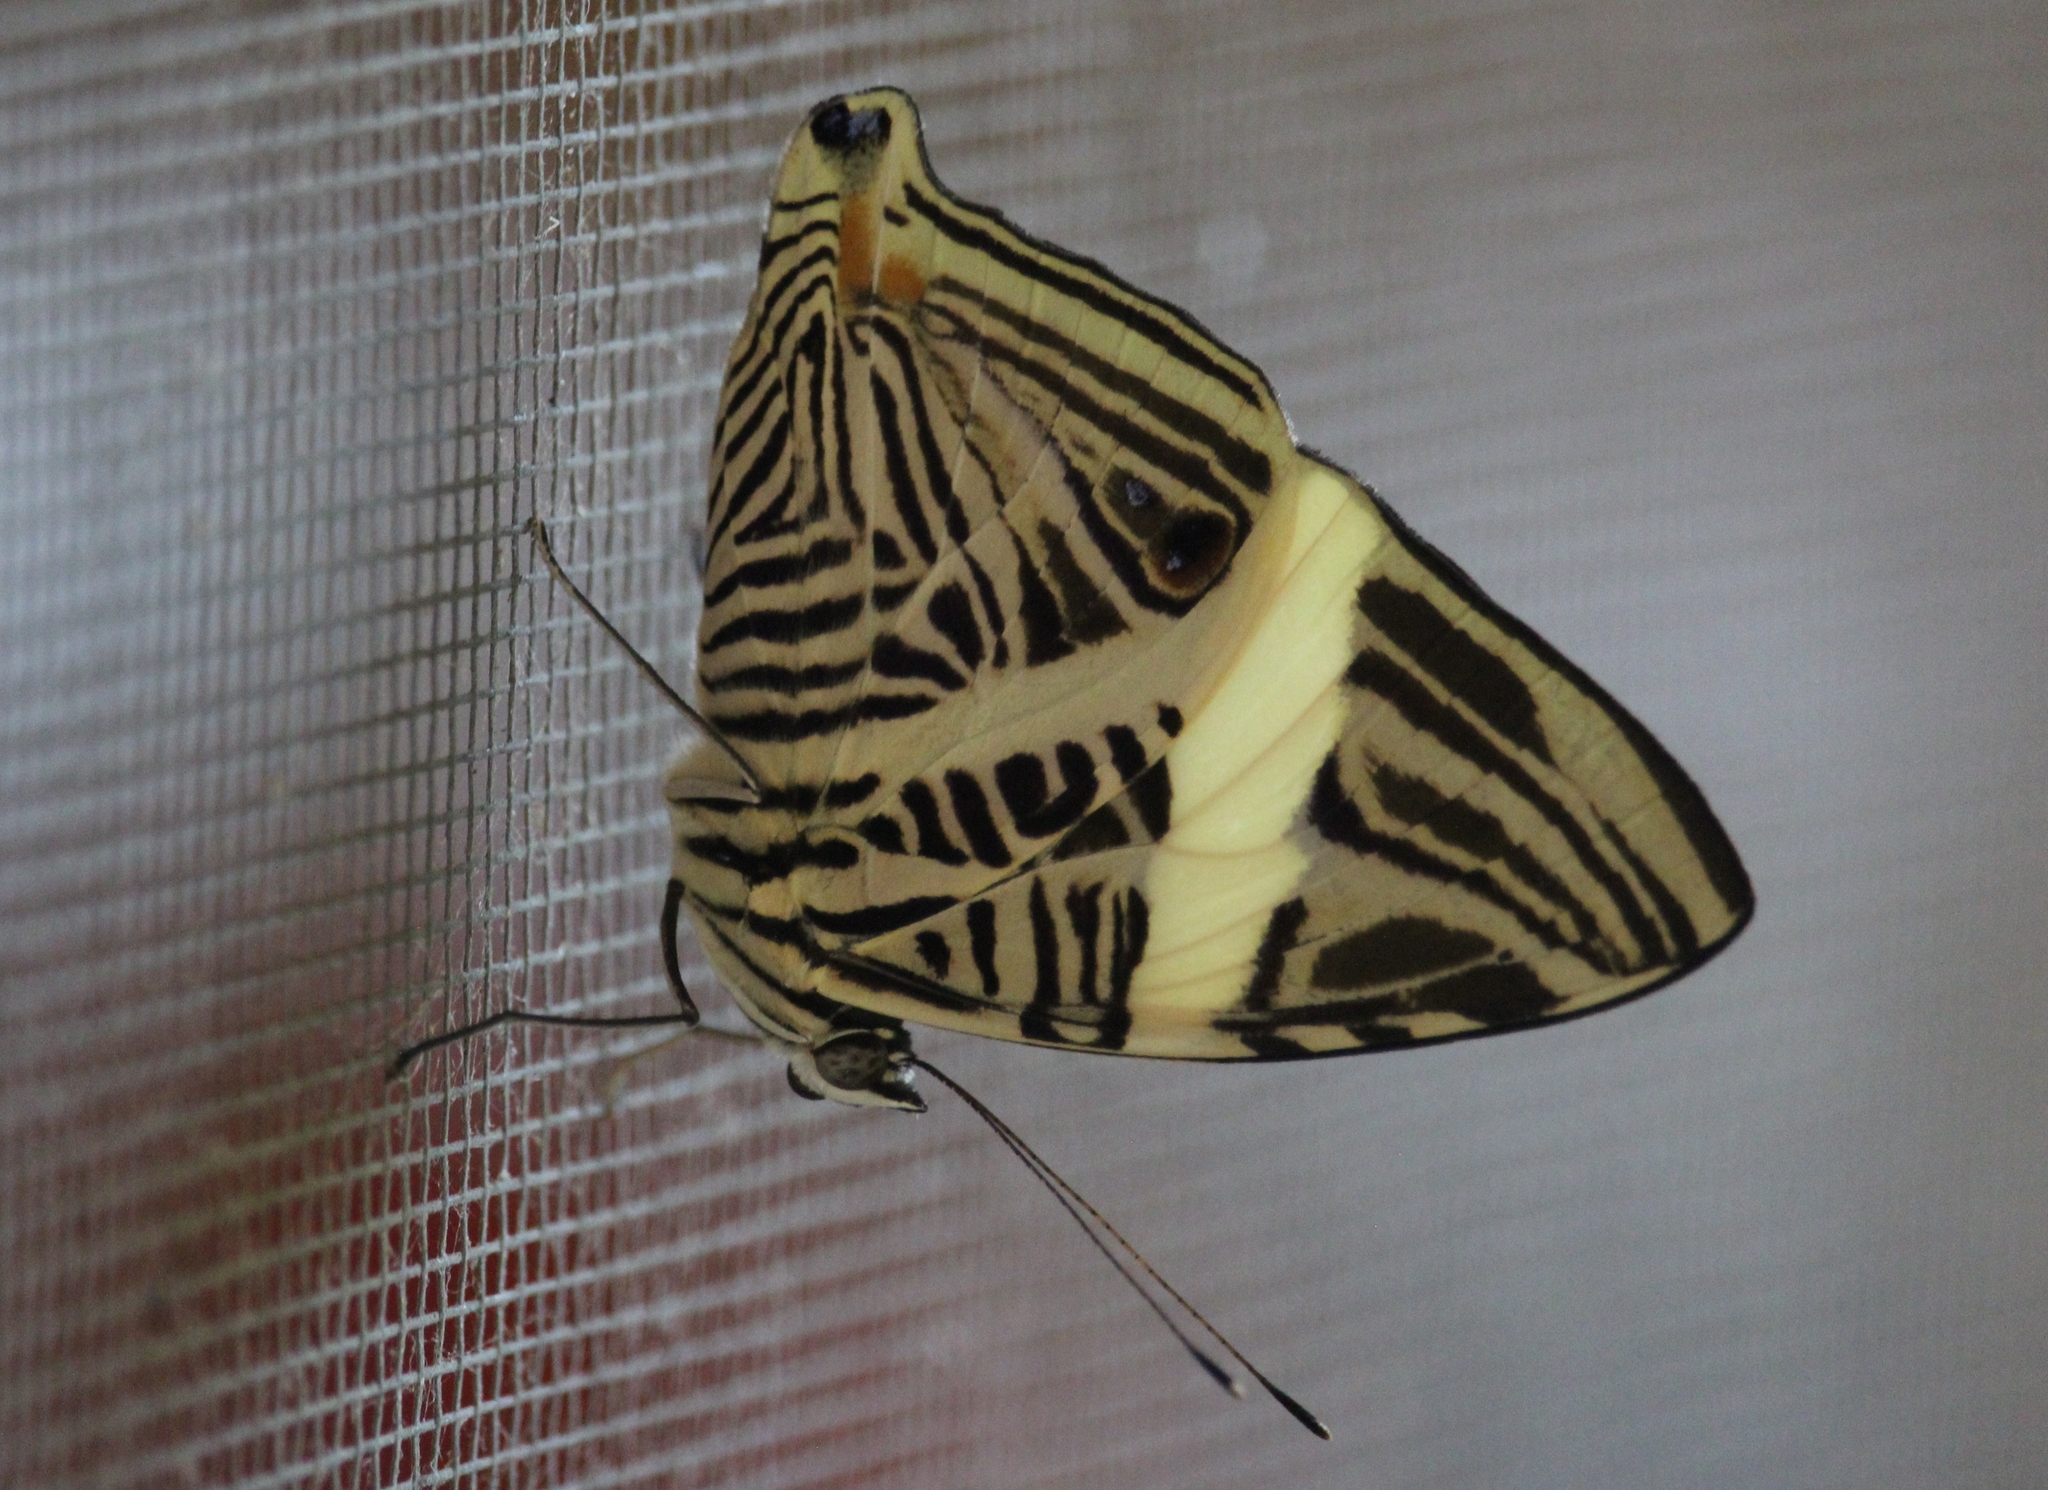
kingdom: Animalia
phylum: Arthropoda
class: Insecta
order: Lepidoptera
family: Nymphalidae
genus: Colobura
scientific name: Colobura dirce
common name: Dirce beauty
